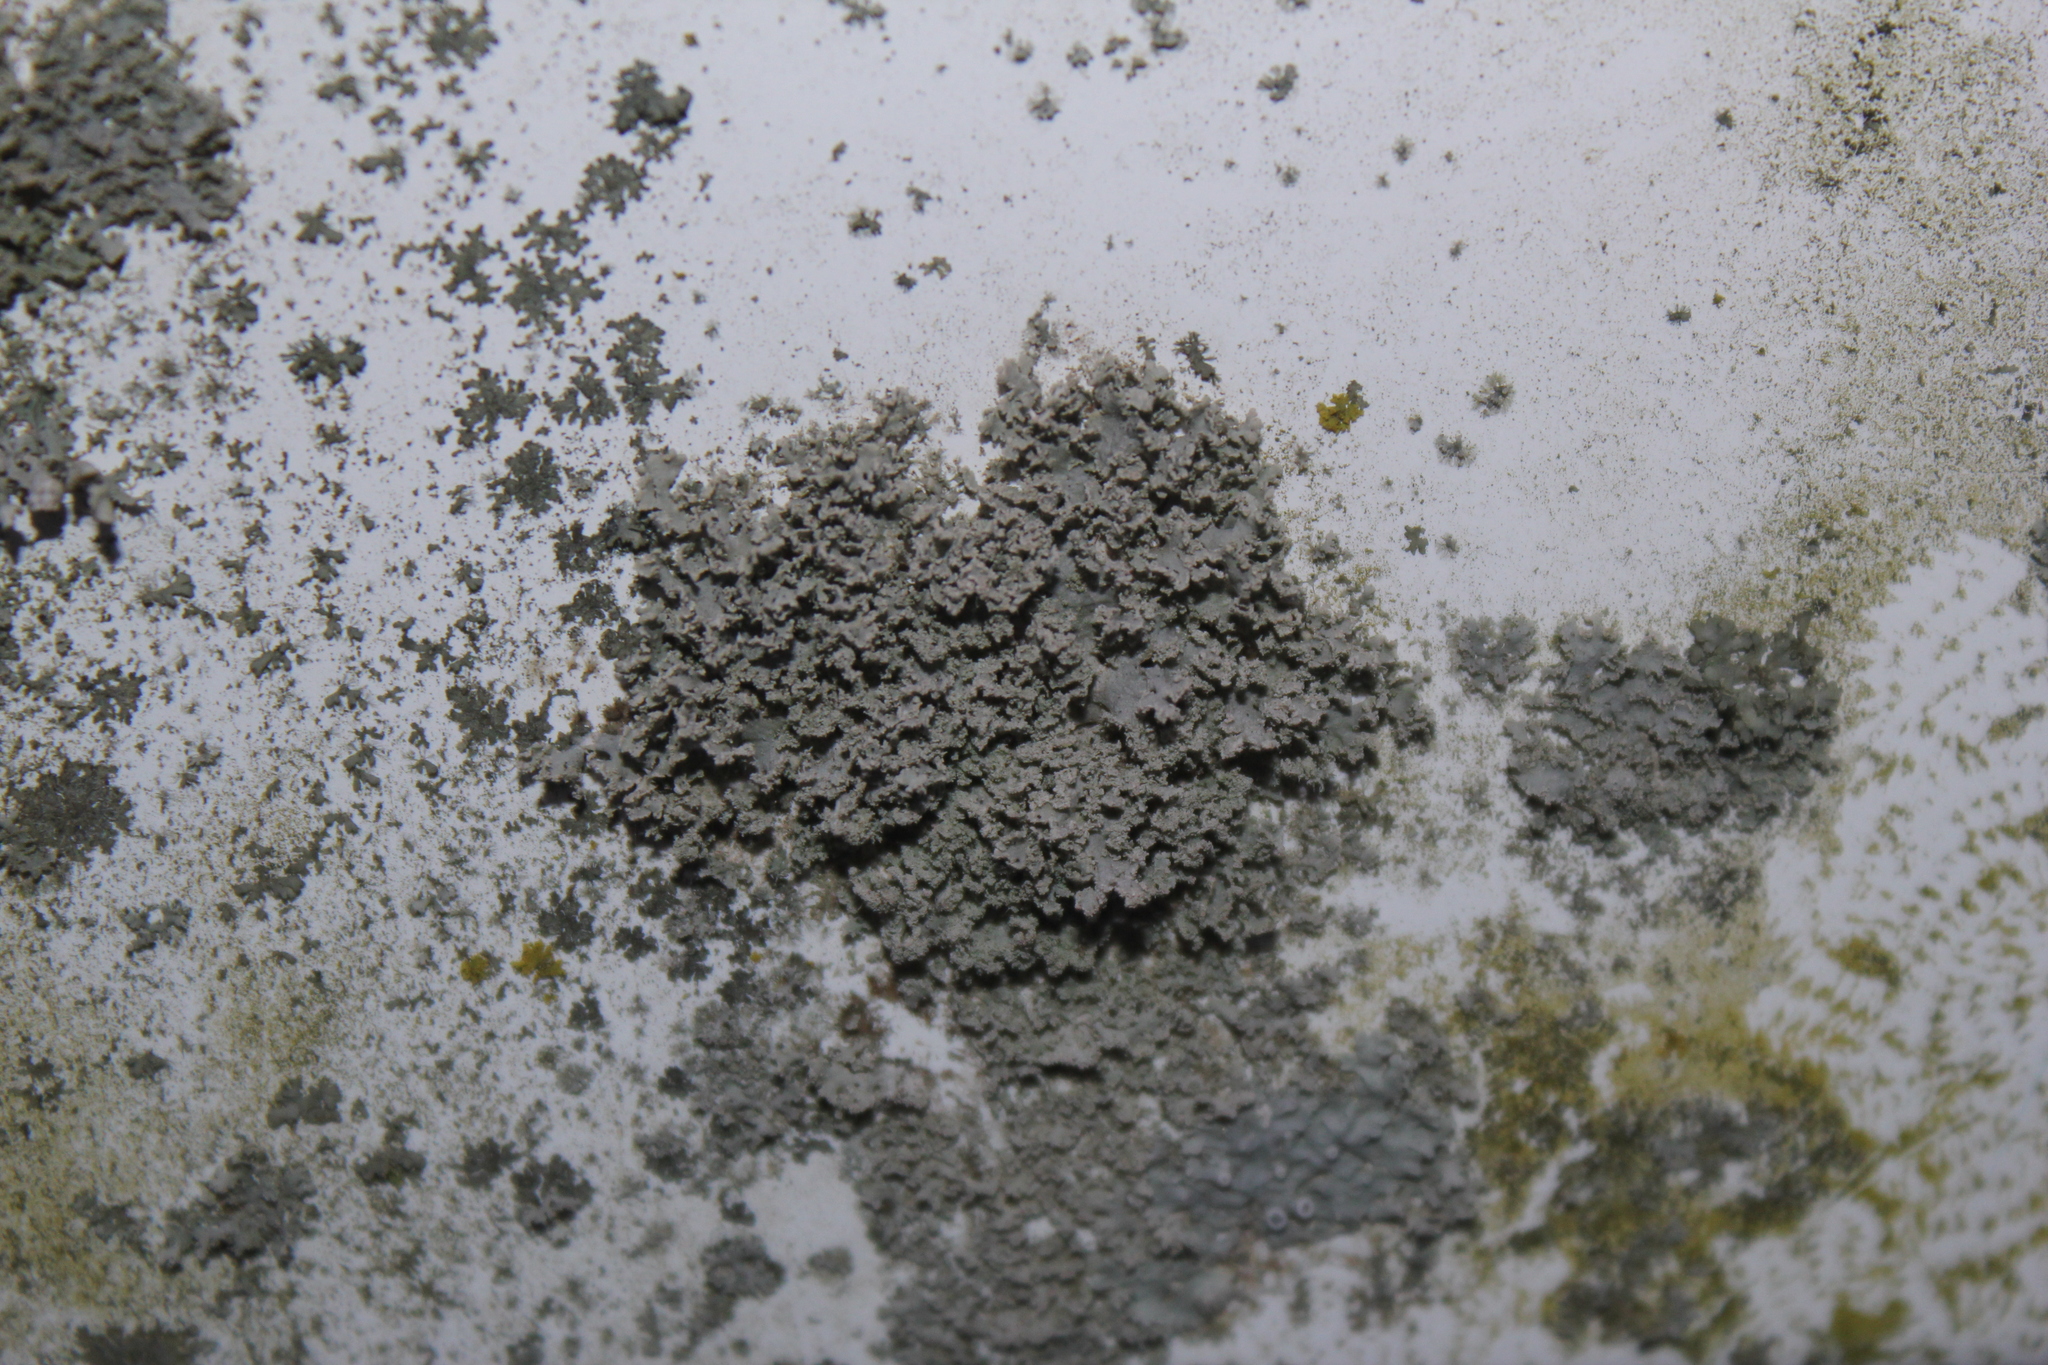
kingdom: Fungi
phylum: Ascomycota
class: Lecanoromycetes
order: Caliciales
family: Physciaceae
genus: Physcia
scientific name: Physcia millegrana
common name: Rosette lichen
